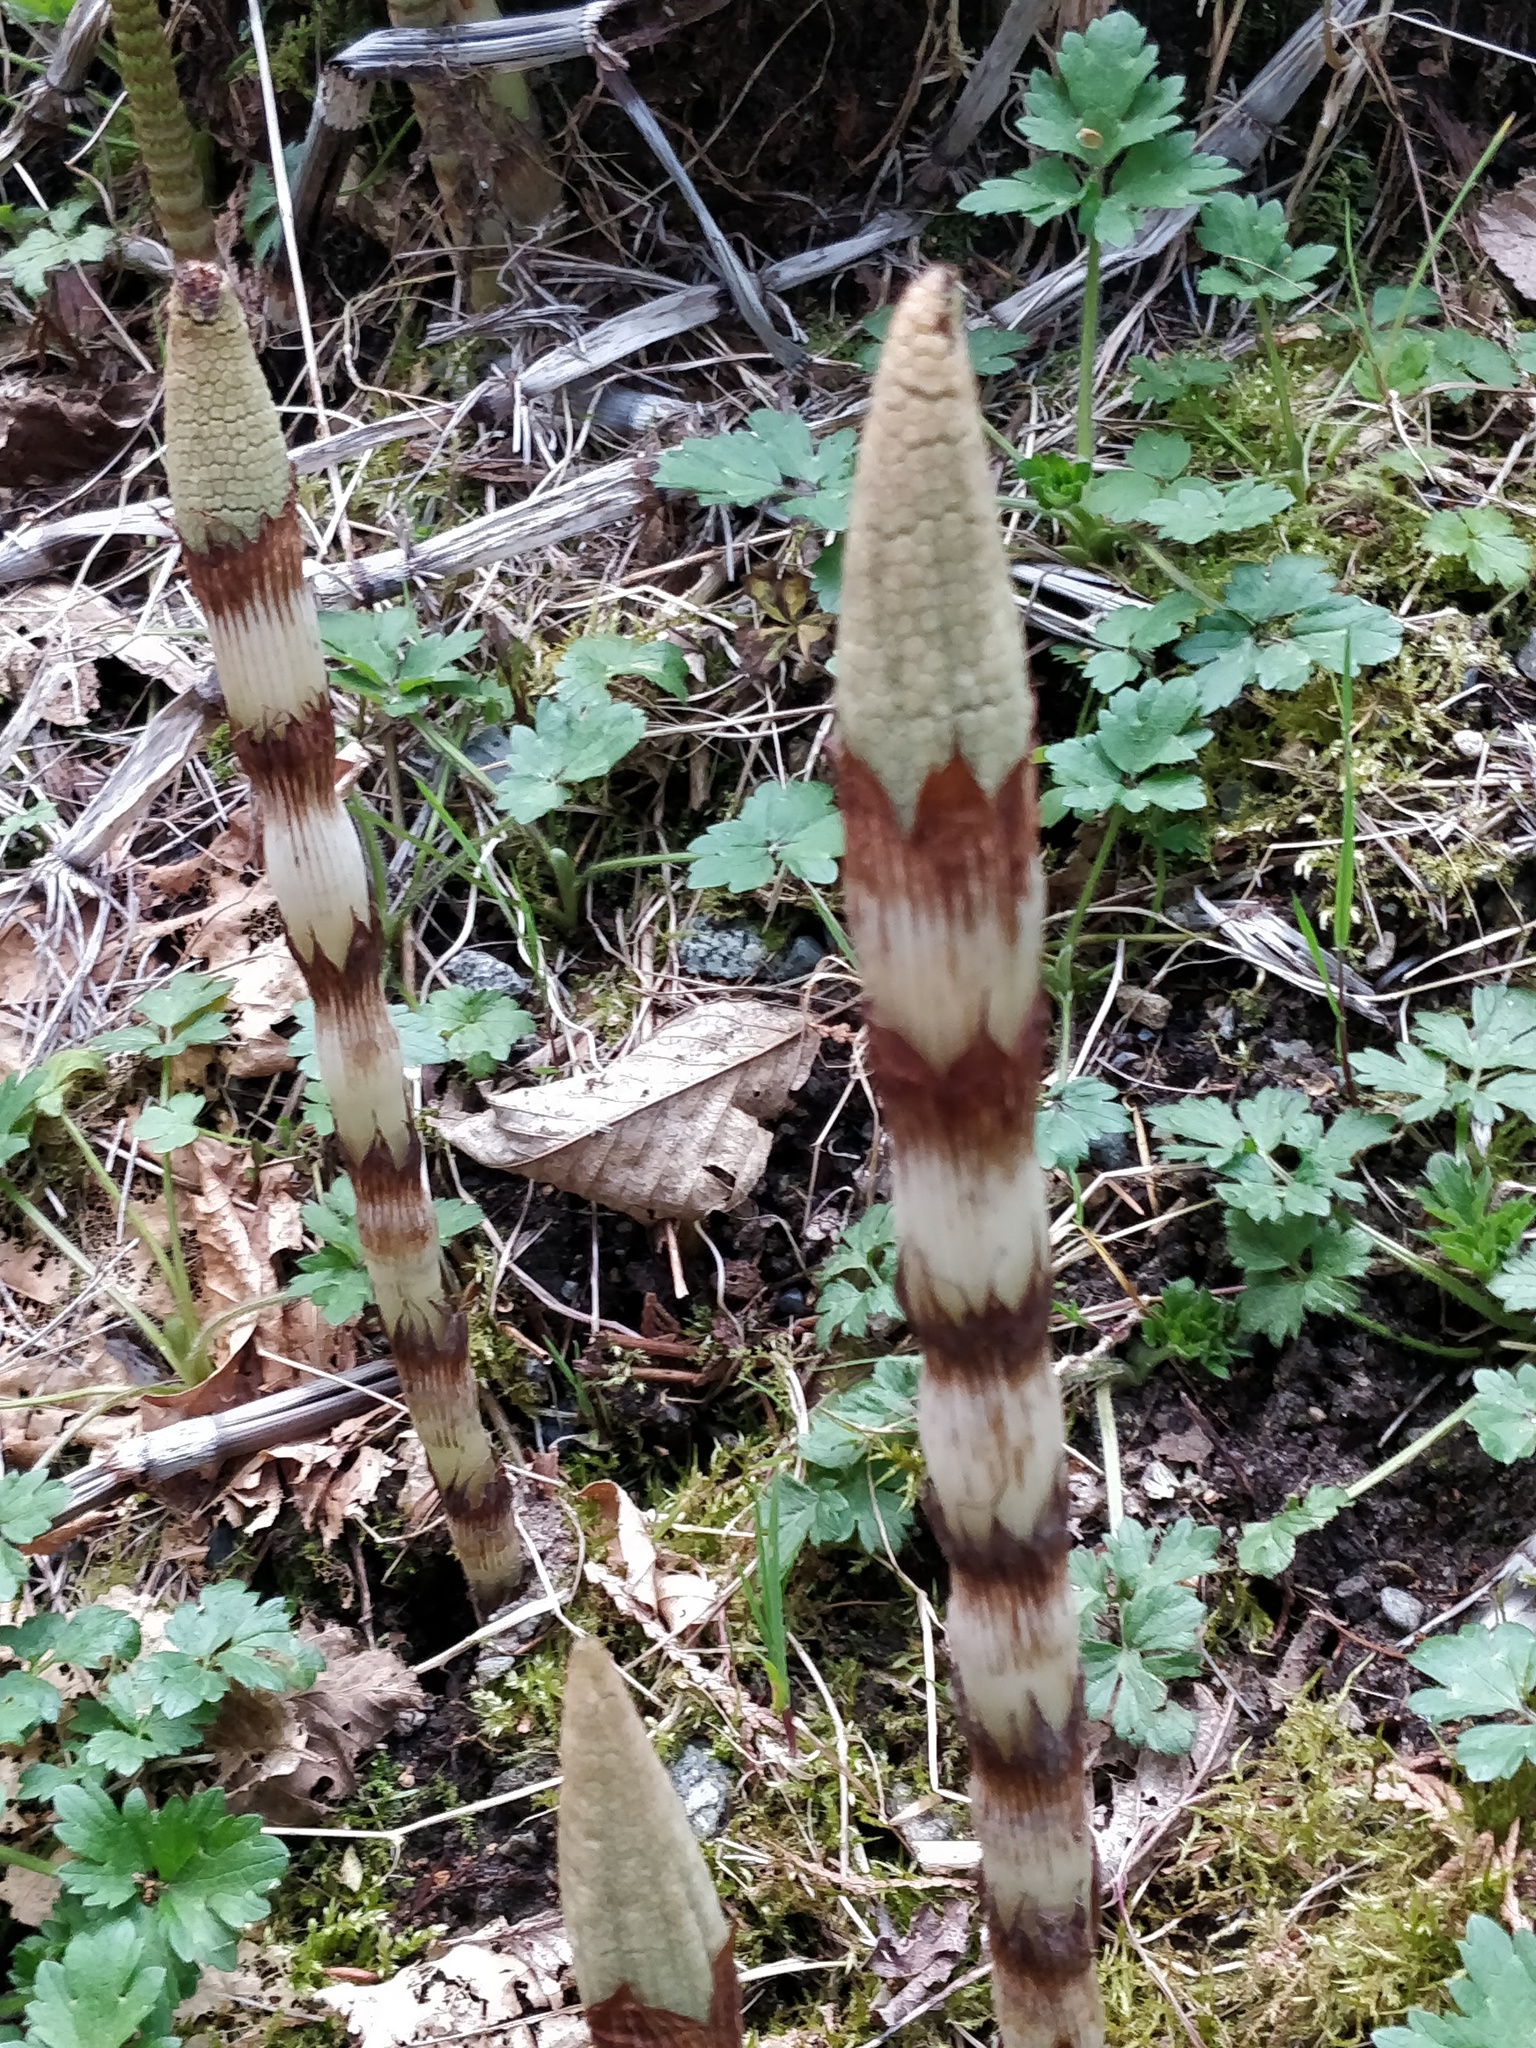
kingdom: Plantae
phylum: Tracheophyta
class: Polypodiopsida
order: Equisetales
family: Equisetaceae
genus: Equisetum
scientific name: Equisetum braunii
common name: Braun's horsetail
